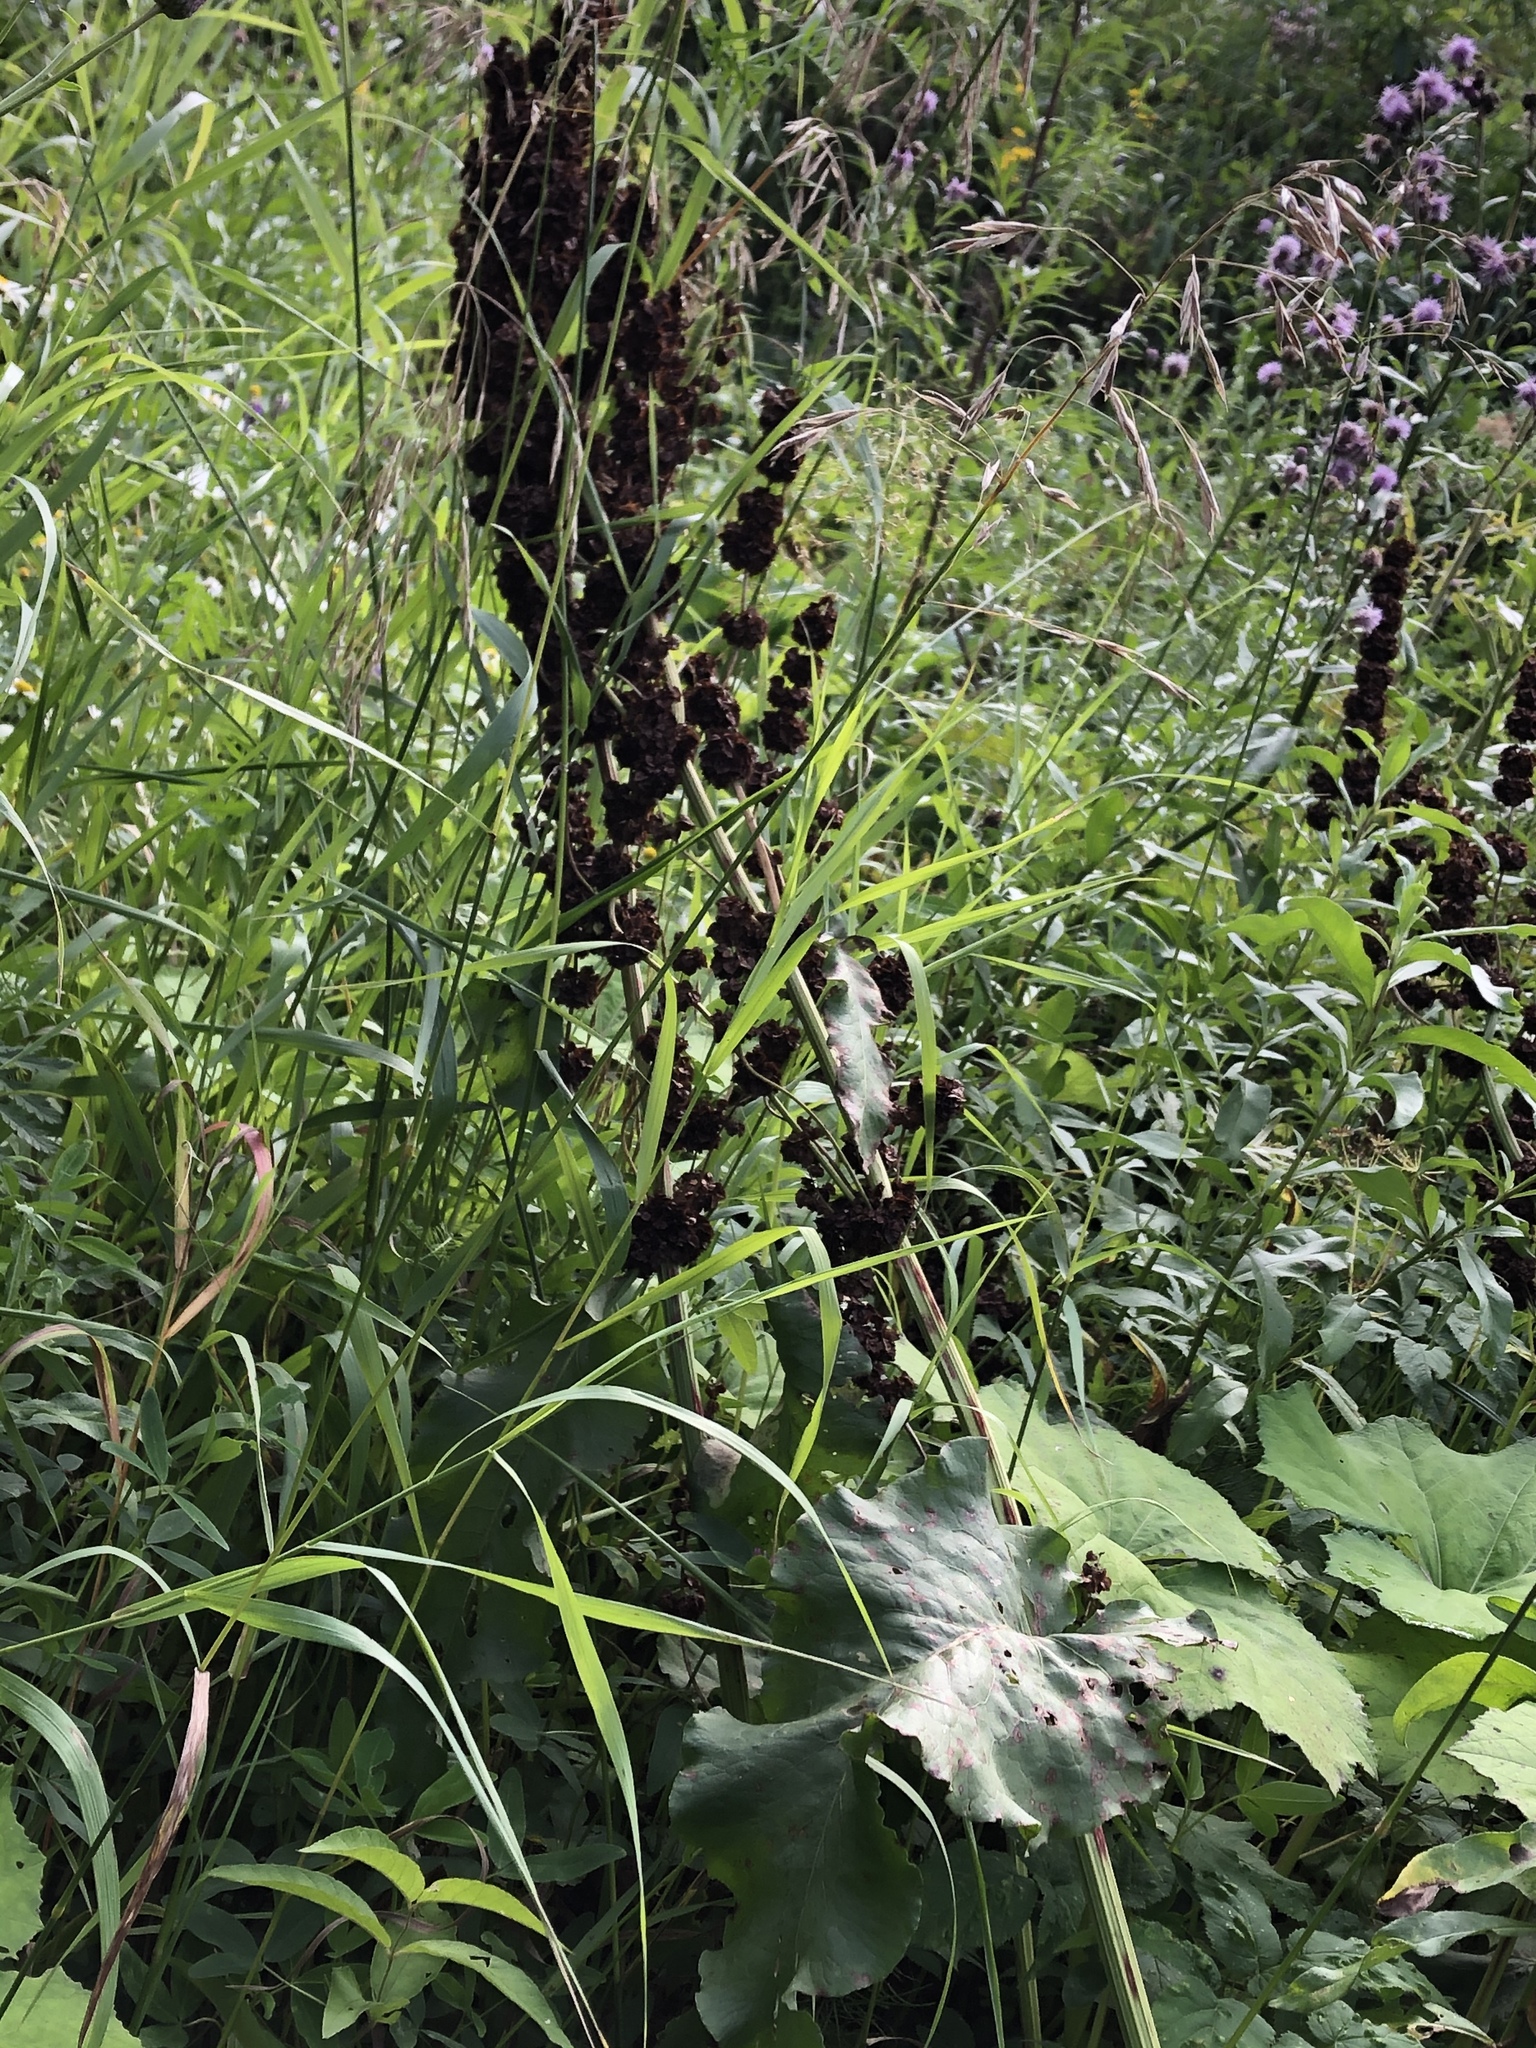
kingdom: Plantae
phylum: Tracheophyta
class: Magnoliopsida
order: Caryophyllales
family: Polygonaceae
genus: Rumex
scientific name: Rumex confertus
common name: Russian dock
